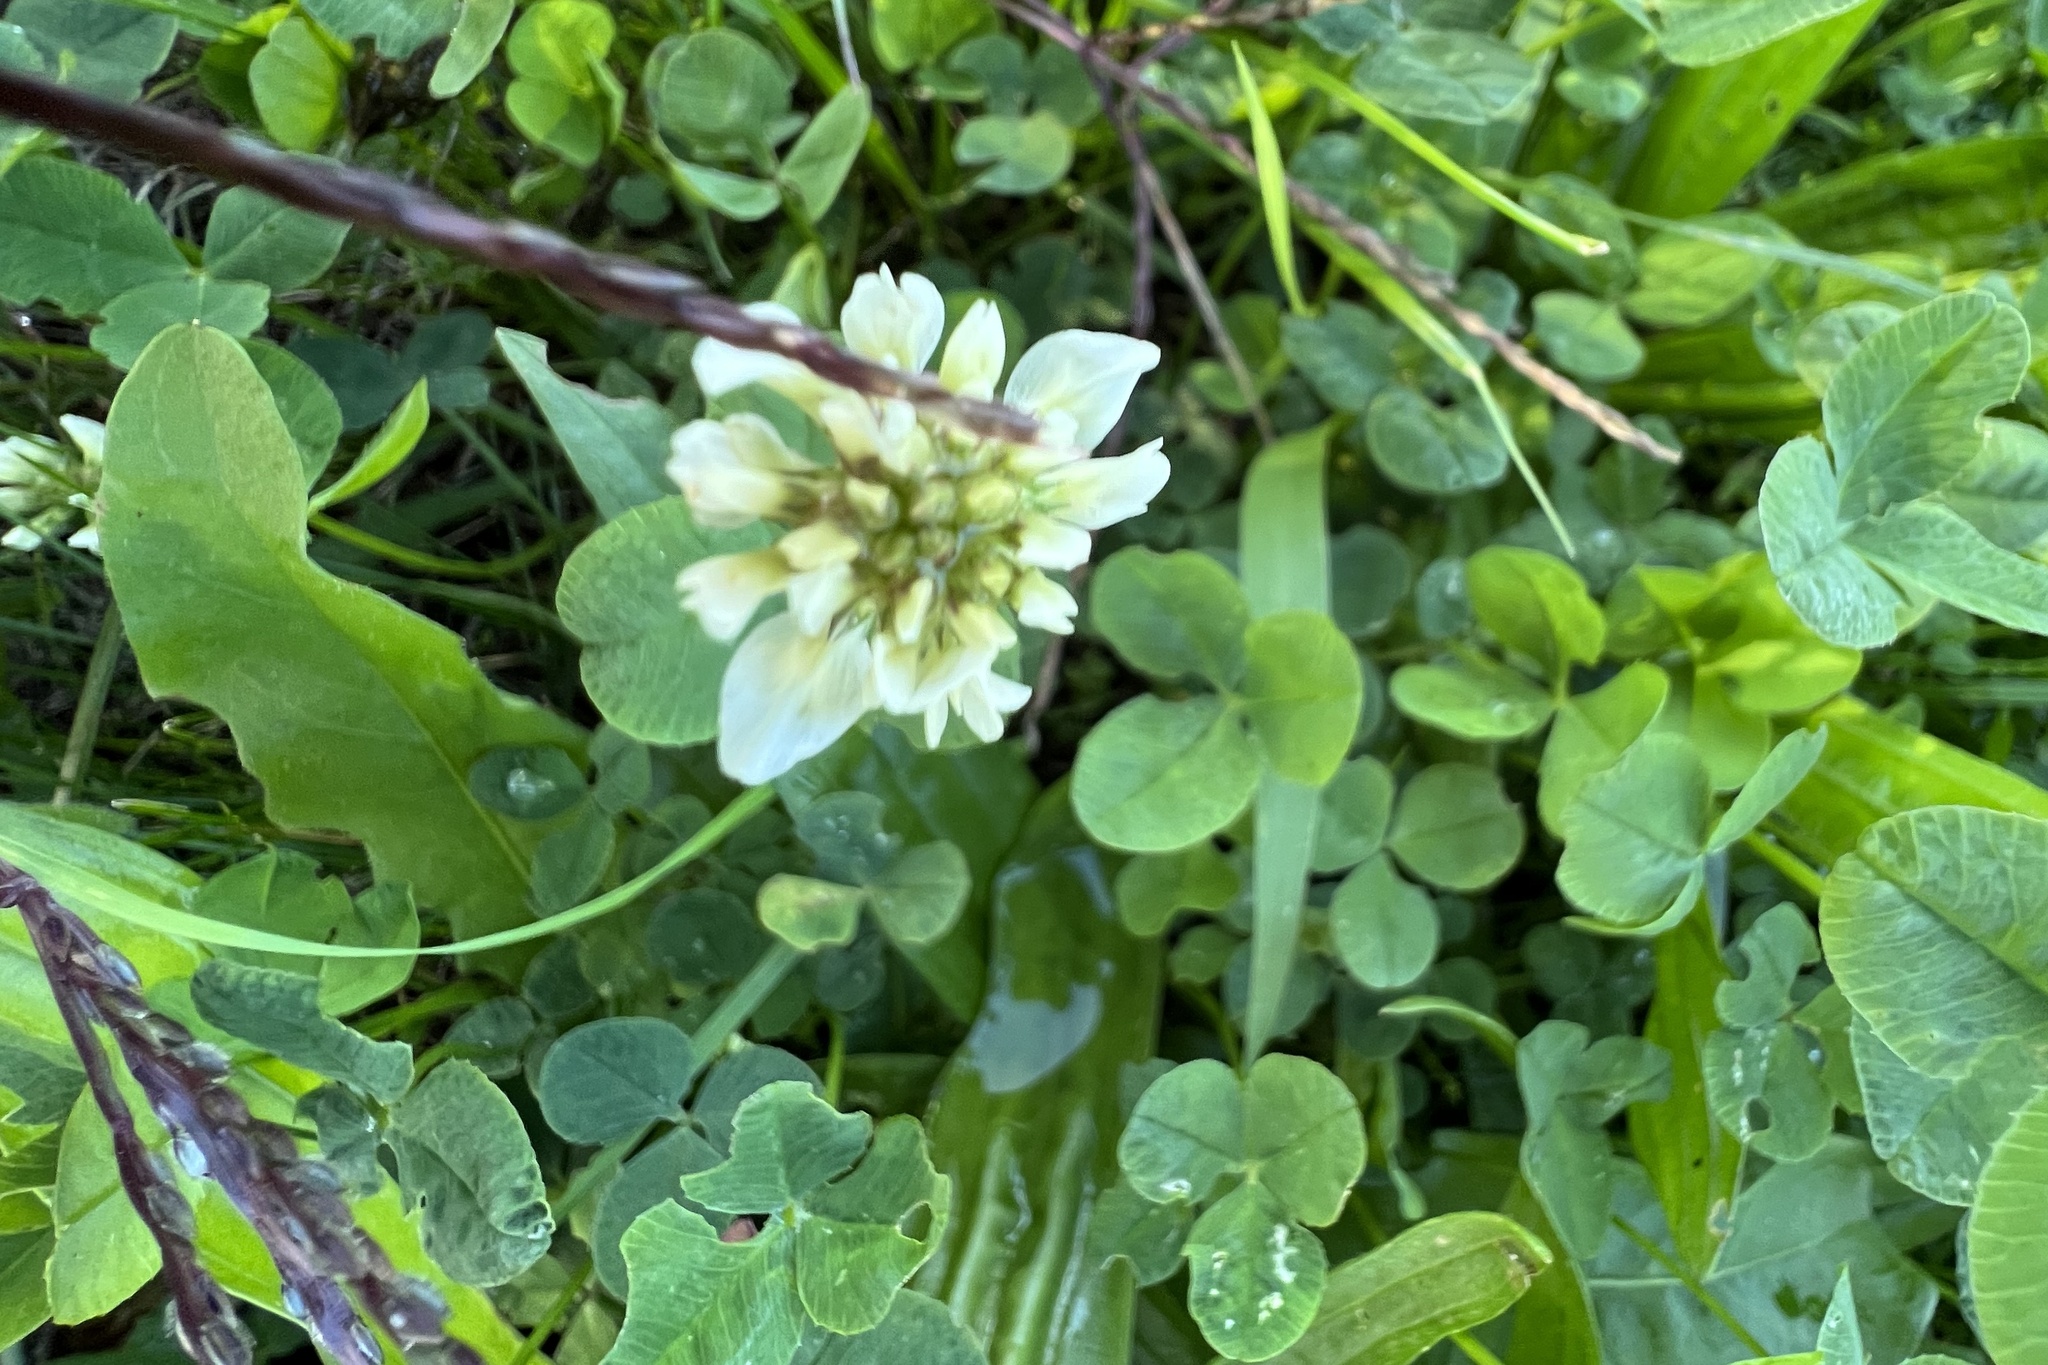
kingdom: Plantae
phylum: Tracheophyta
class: Magnoliopsida
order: Fabales
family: Fabaceae
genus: Trifolium
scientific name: Trifolium repens
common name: White clover
